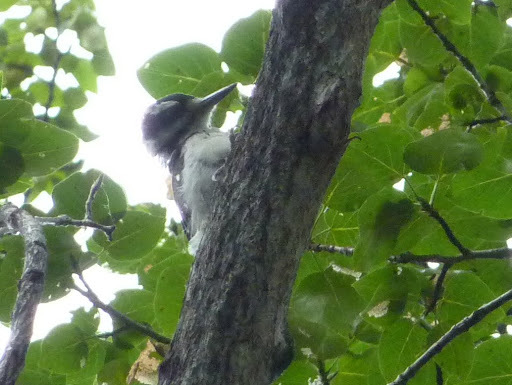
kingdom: Animalia
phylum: Chordata
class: Aves
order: Piciformes
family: Picidae
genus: Leuconotopicus
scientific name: Leuconotopicus villosus
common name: Hairy woodpecker
